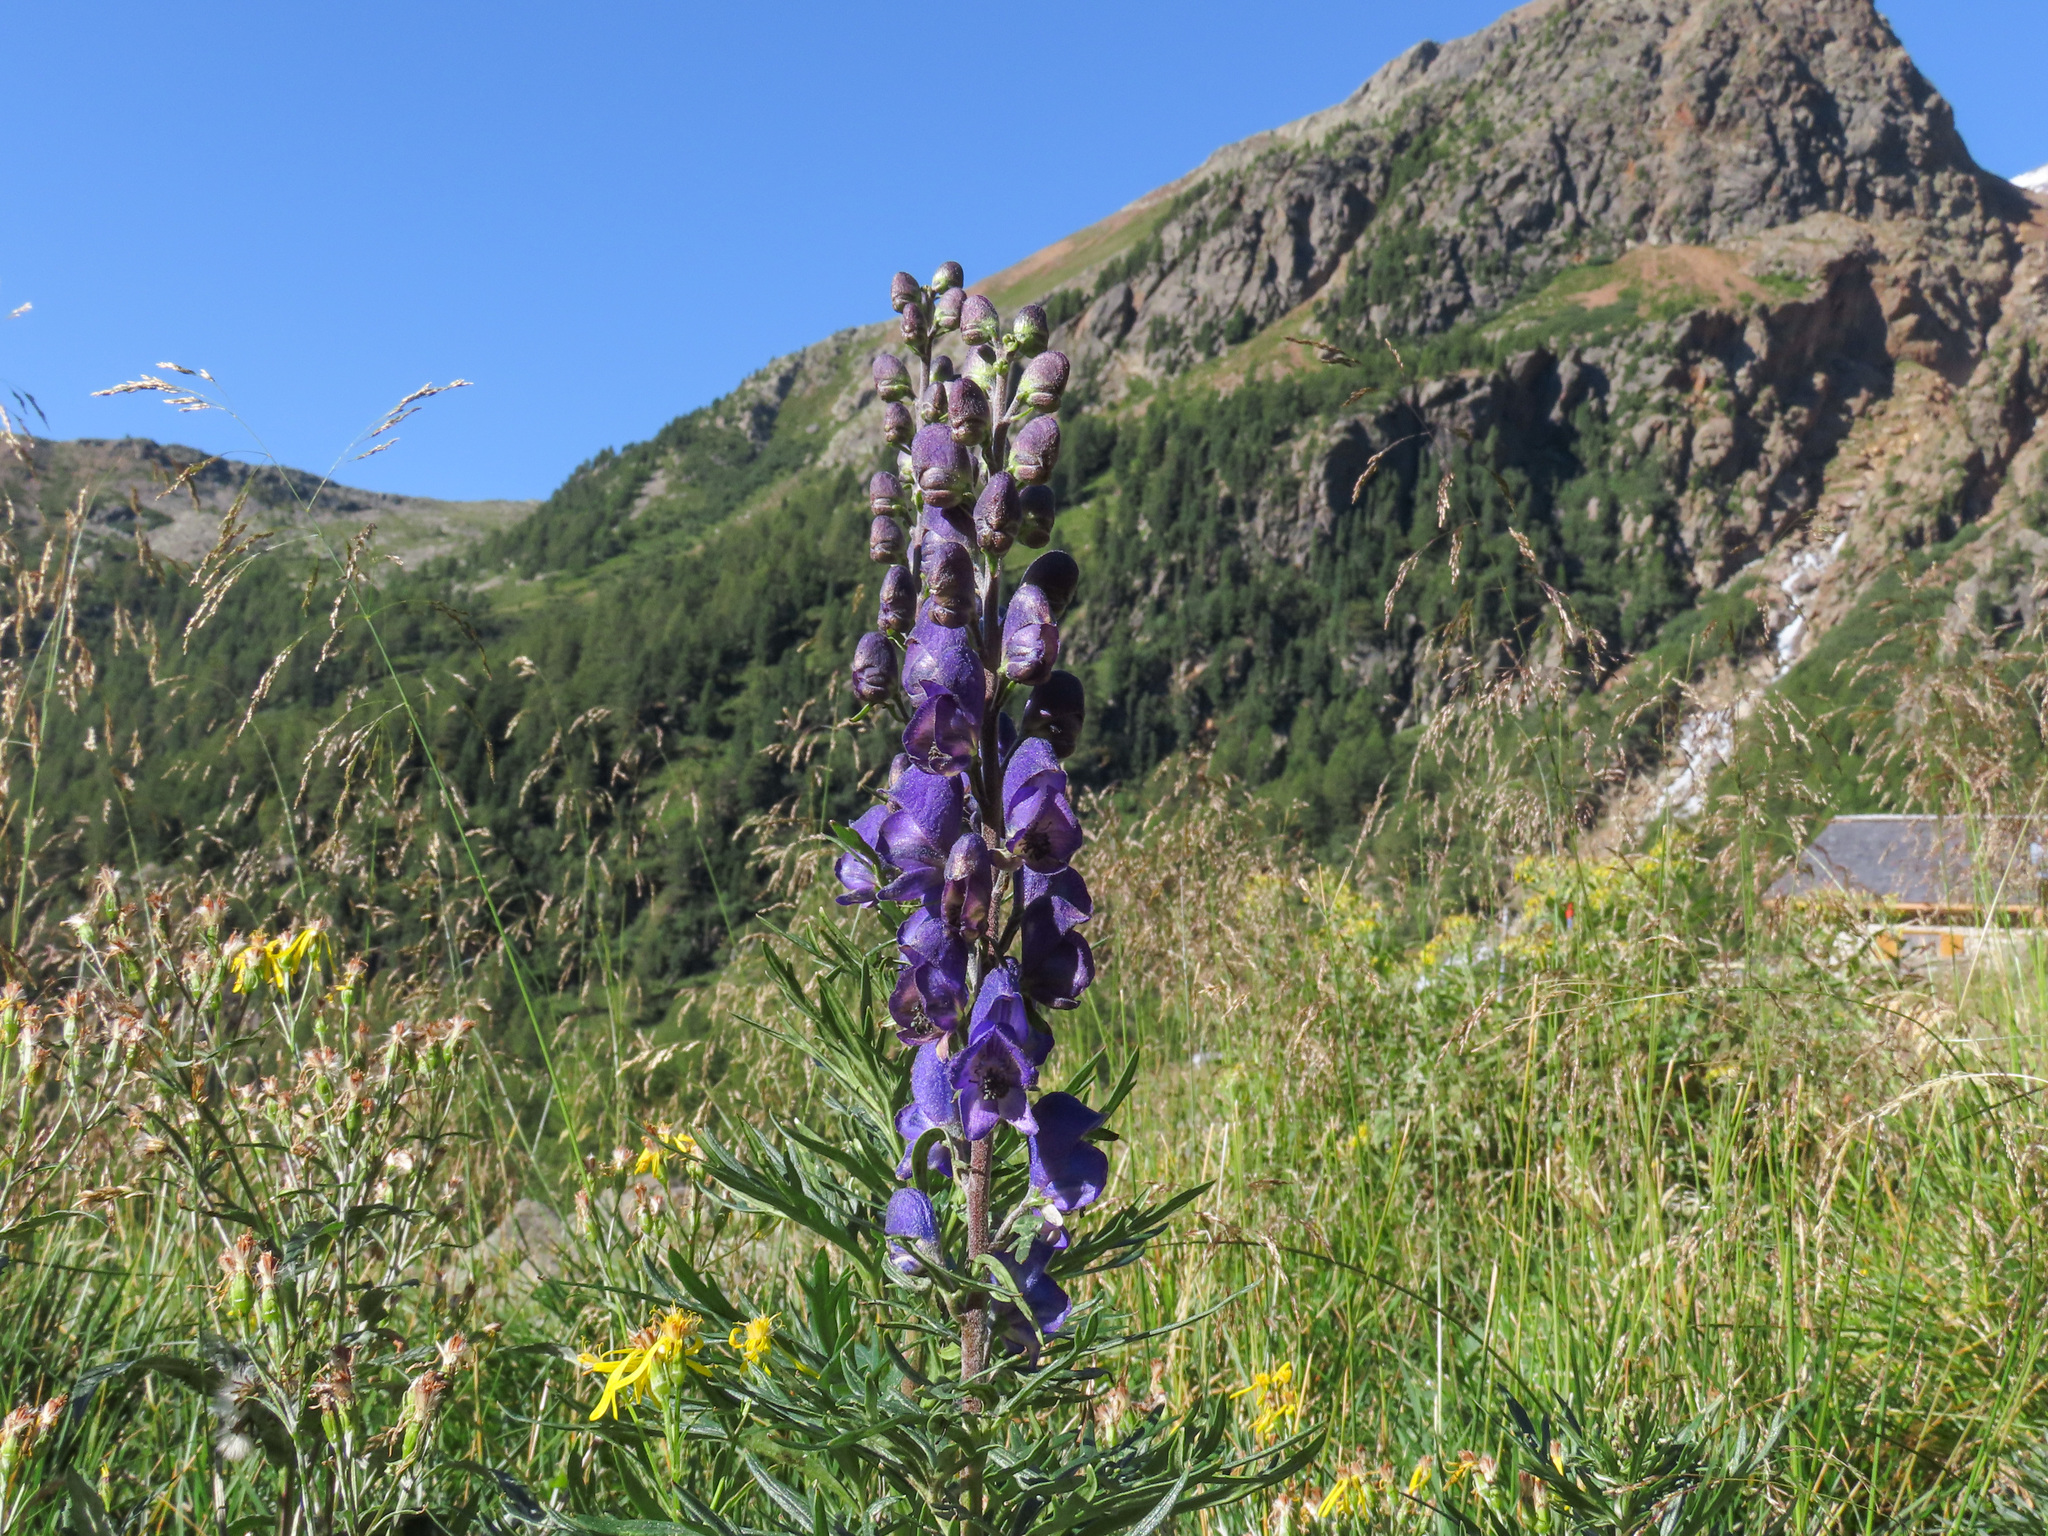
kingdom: Plantae
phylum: Tracheophyta
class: Magnoliopsida
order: Ranunculales
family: Ranunculaceae
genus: Aconitum
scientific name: Aconitum napellus
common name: Garden monkshood
